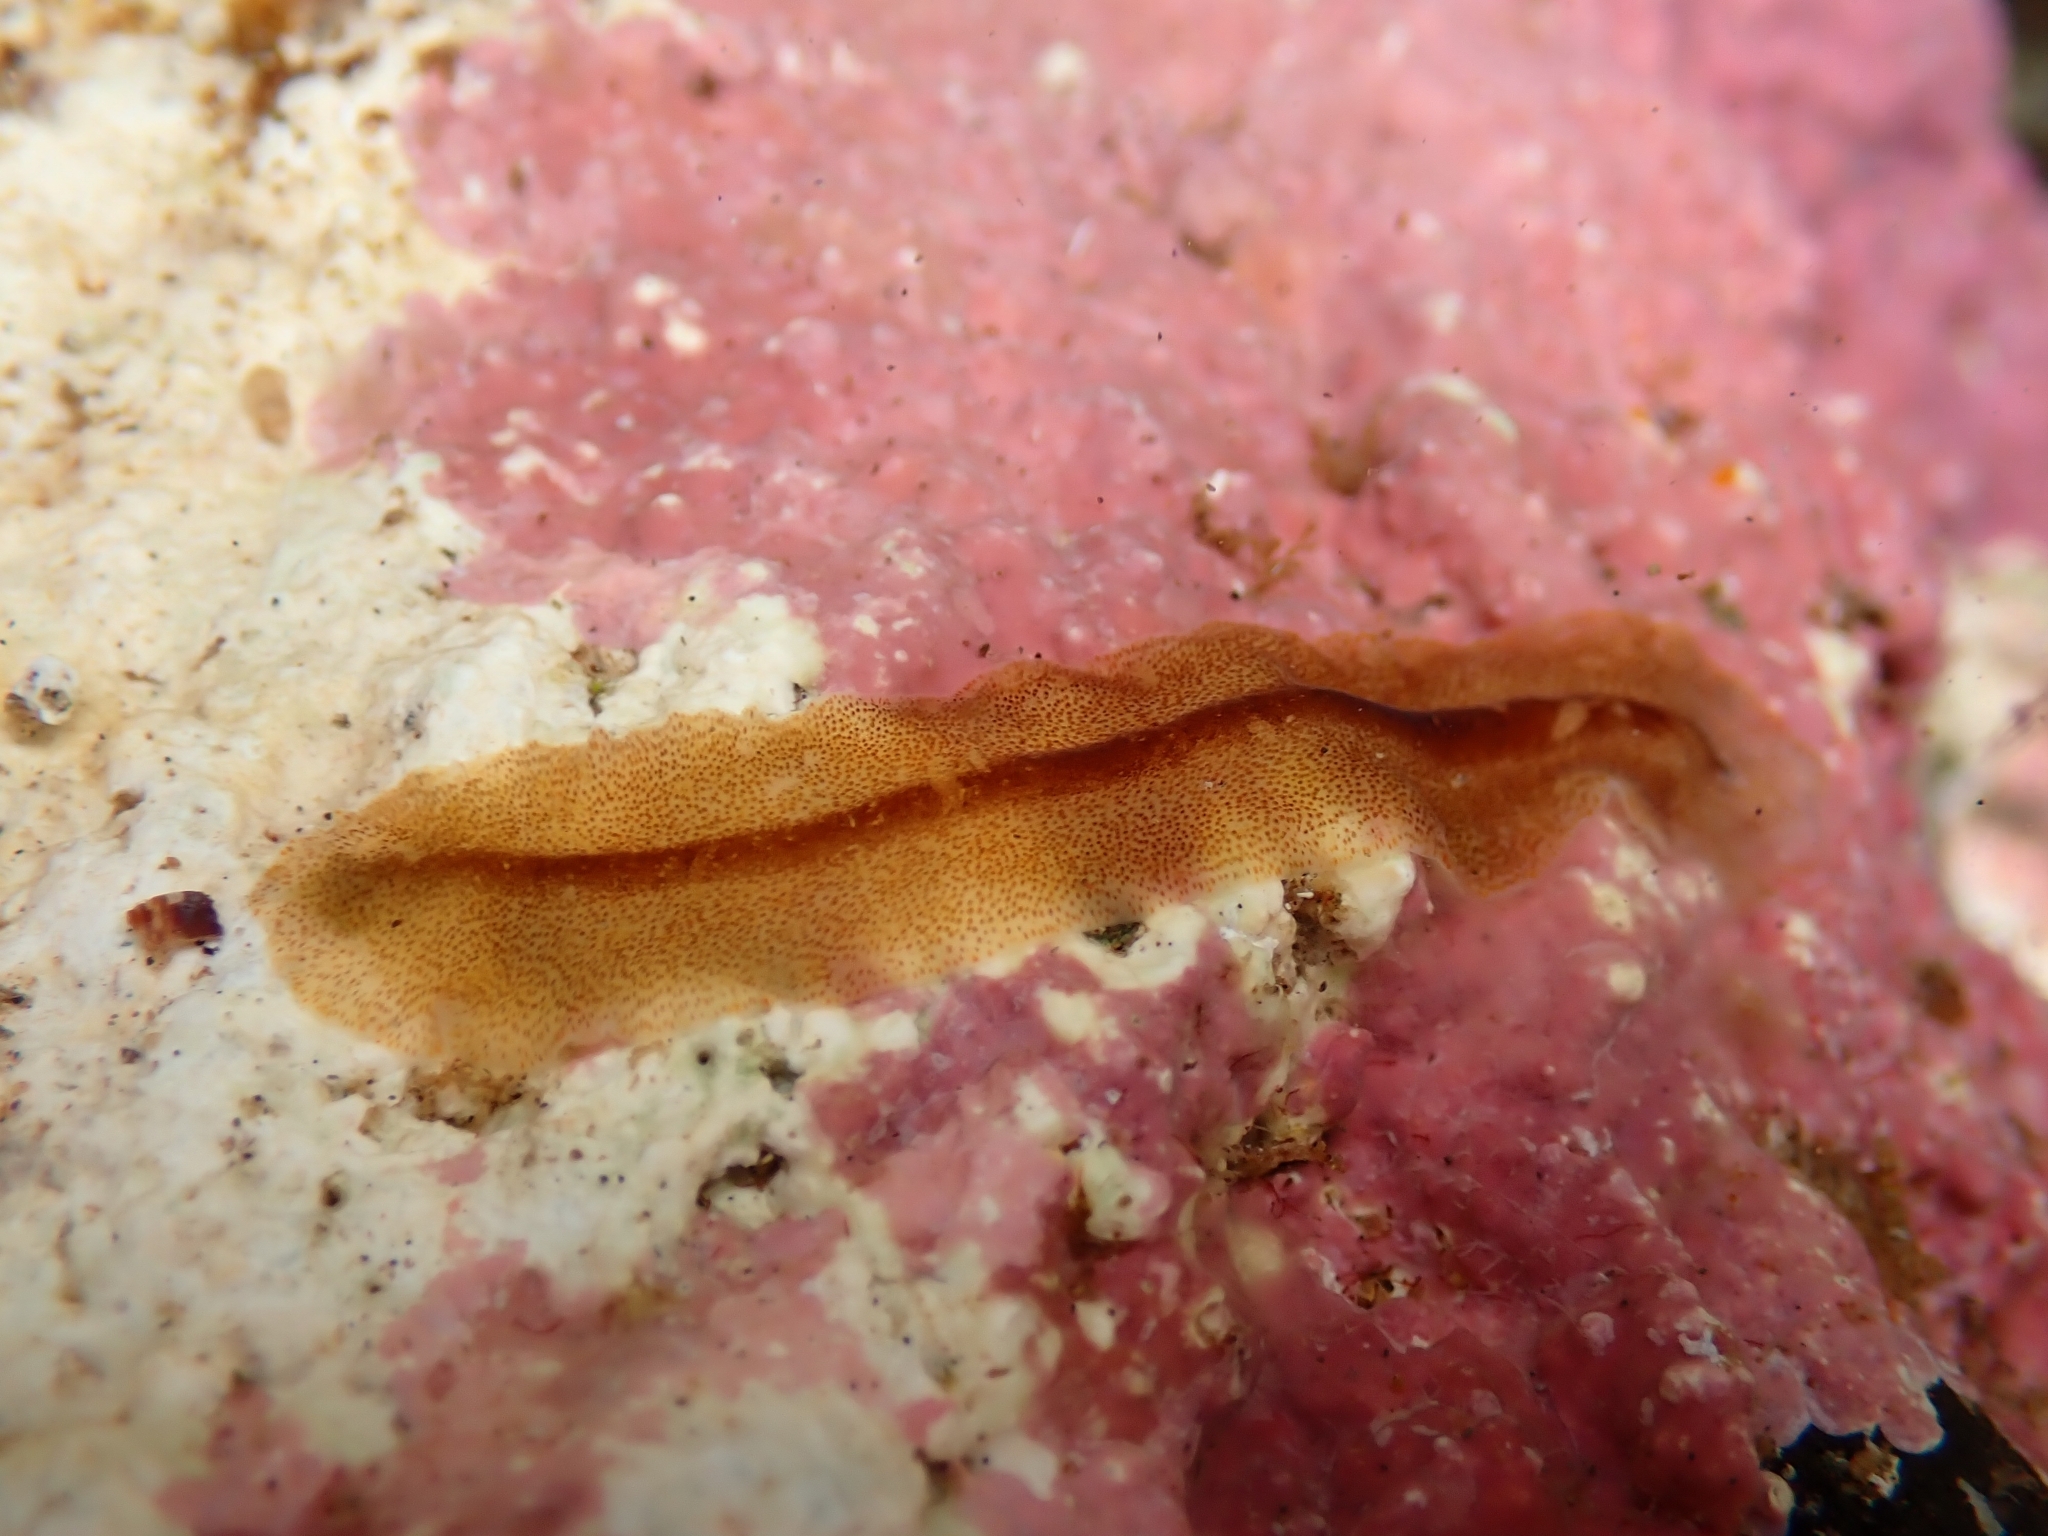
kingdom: Animalia
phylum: Platyhelminthes
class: Turbellaria
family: Prosthiostomidae
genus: Enchiridium
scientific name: Enchiridium magec
